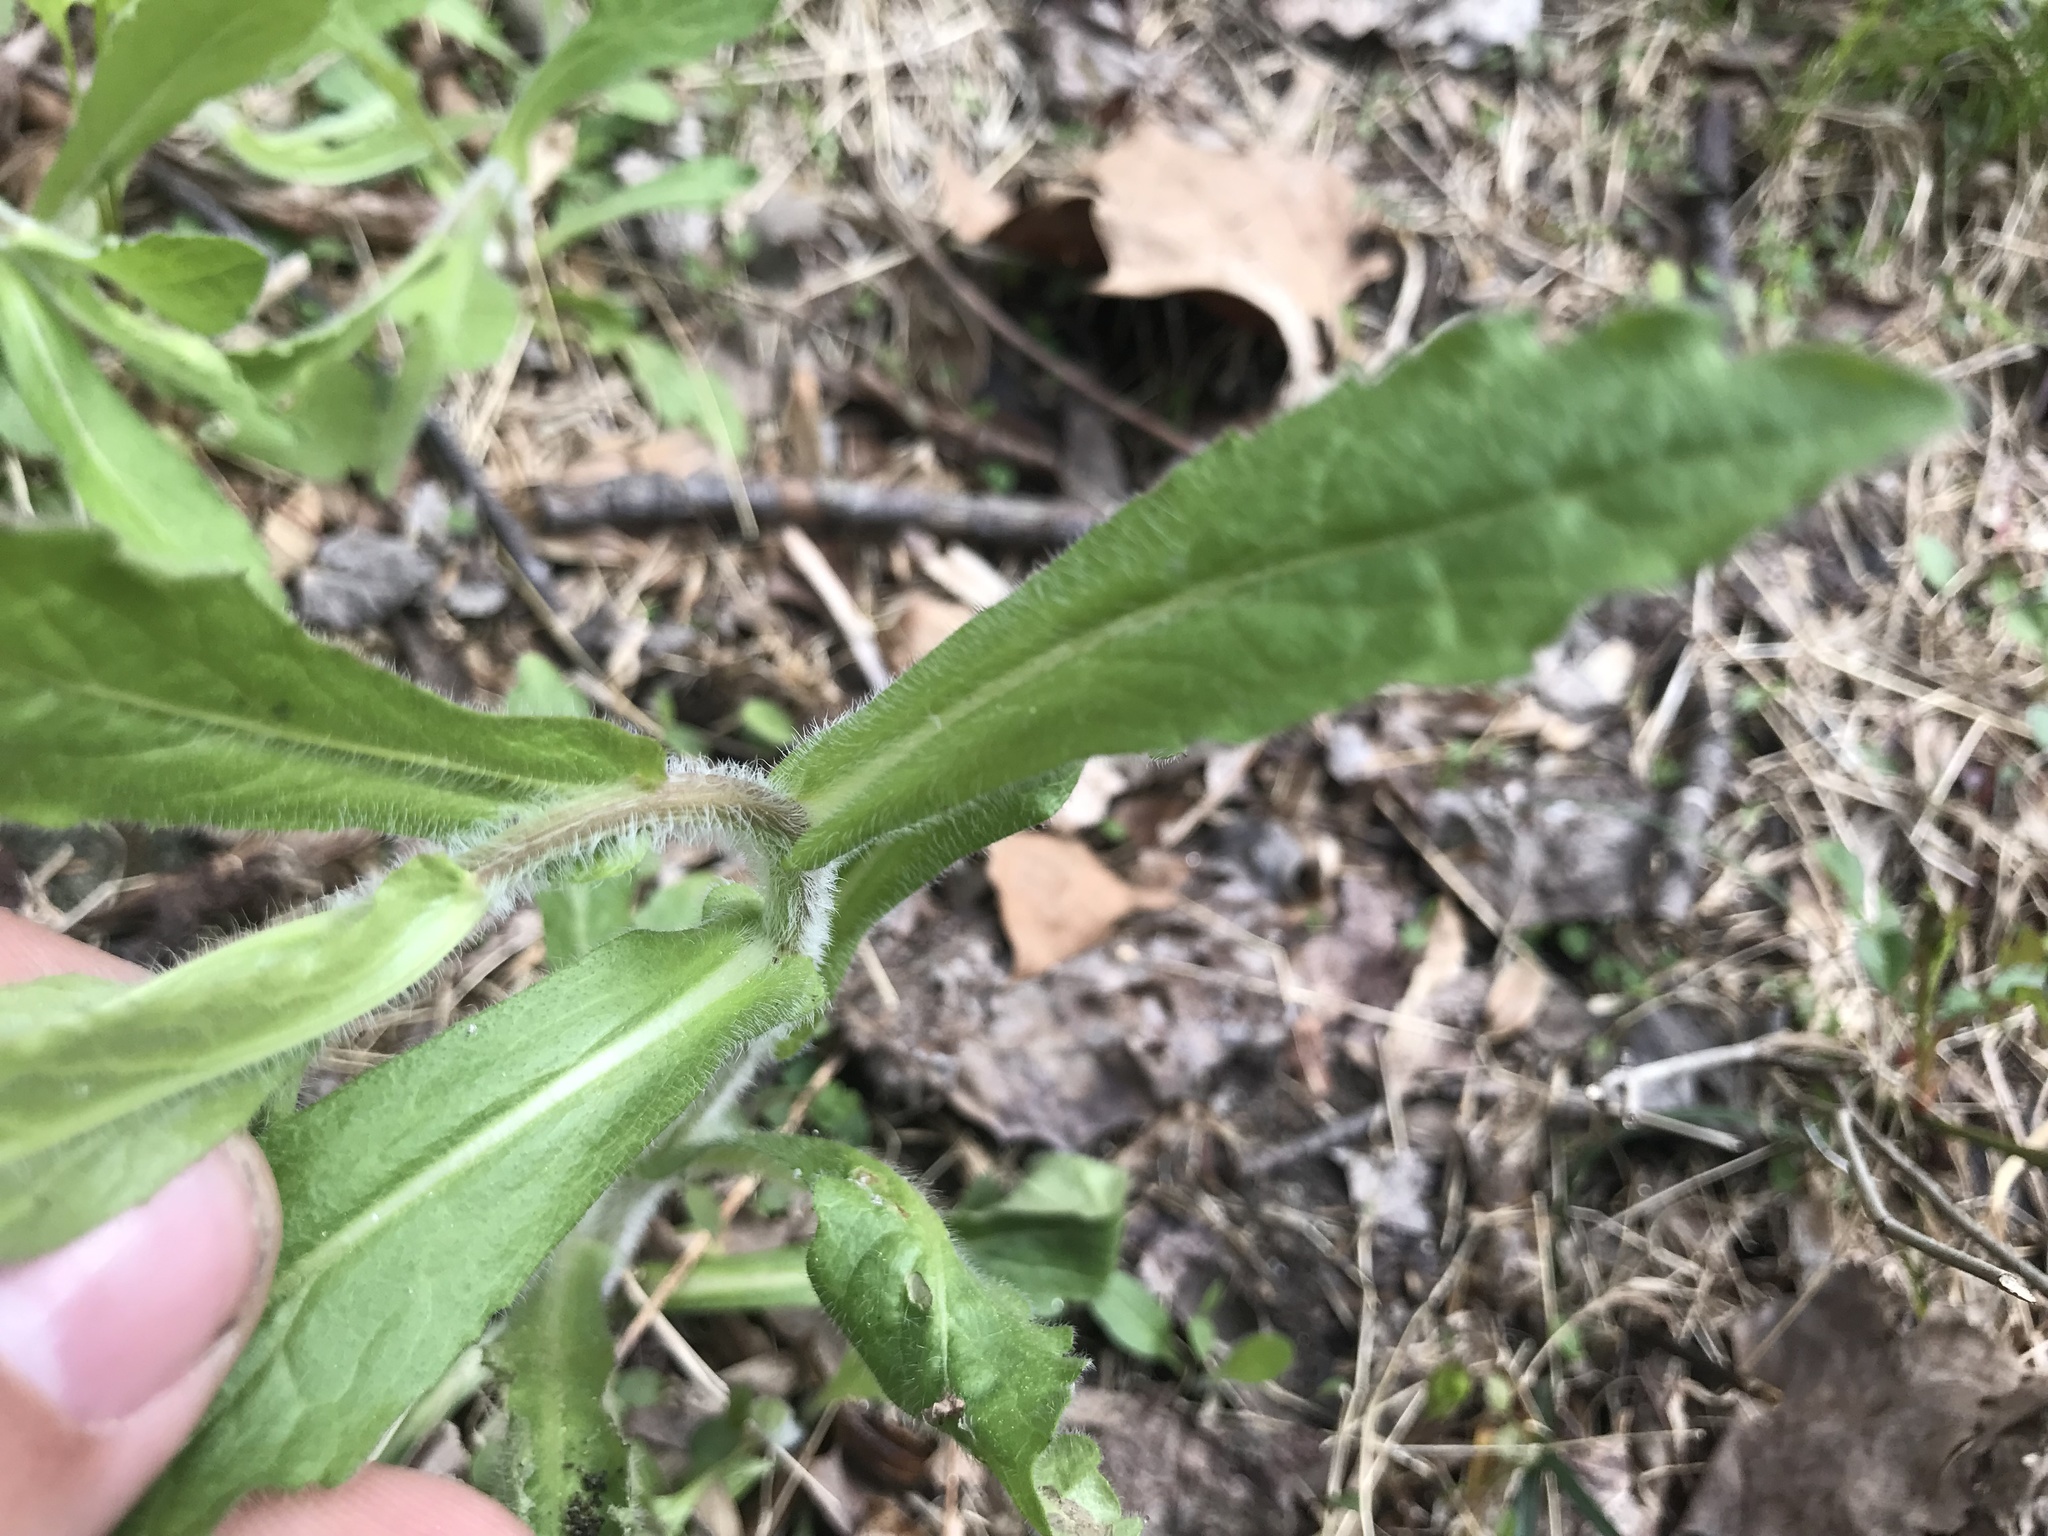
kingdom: Plantae
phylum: Tracheophyta
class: Magnoliopsida
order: Asterales
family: Asteraceae
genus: Erigeron
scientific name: Erigeron philadelphicus
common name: Robin's-plantain
